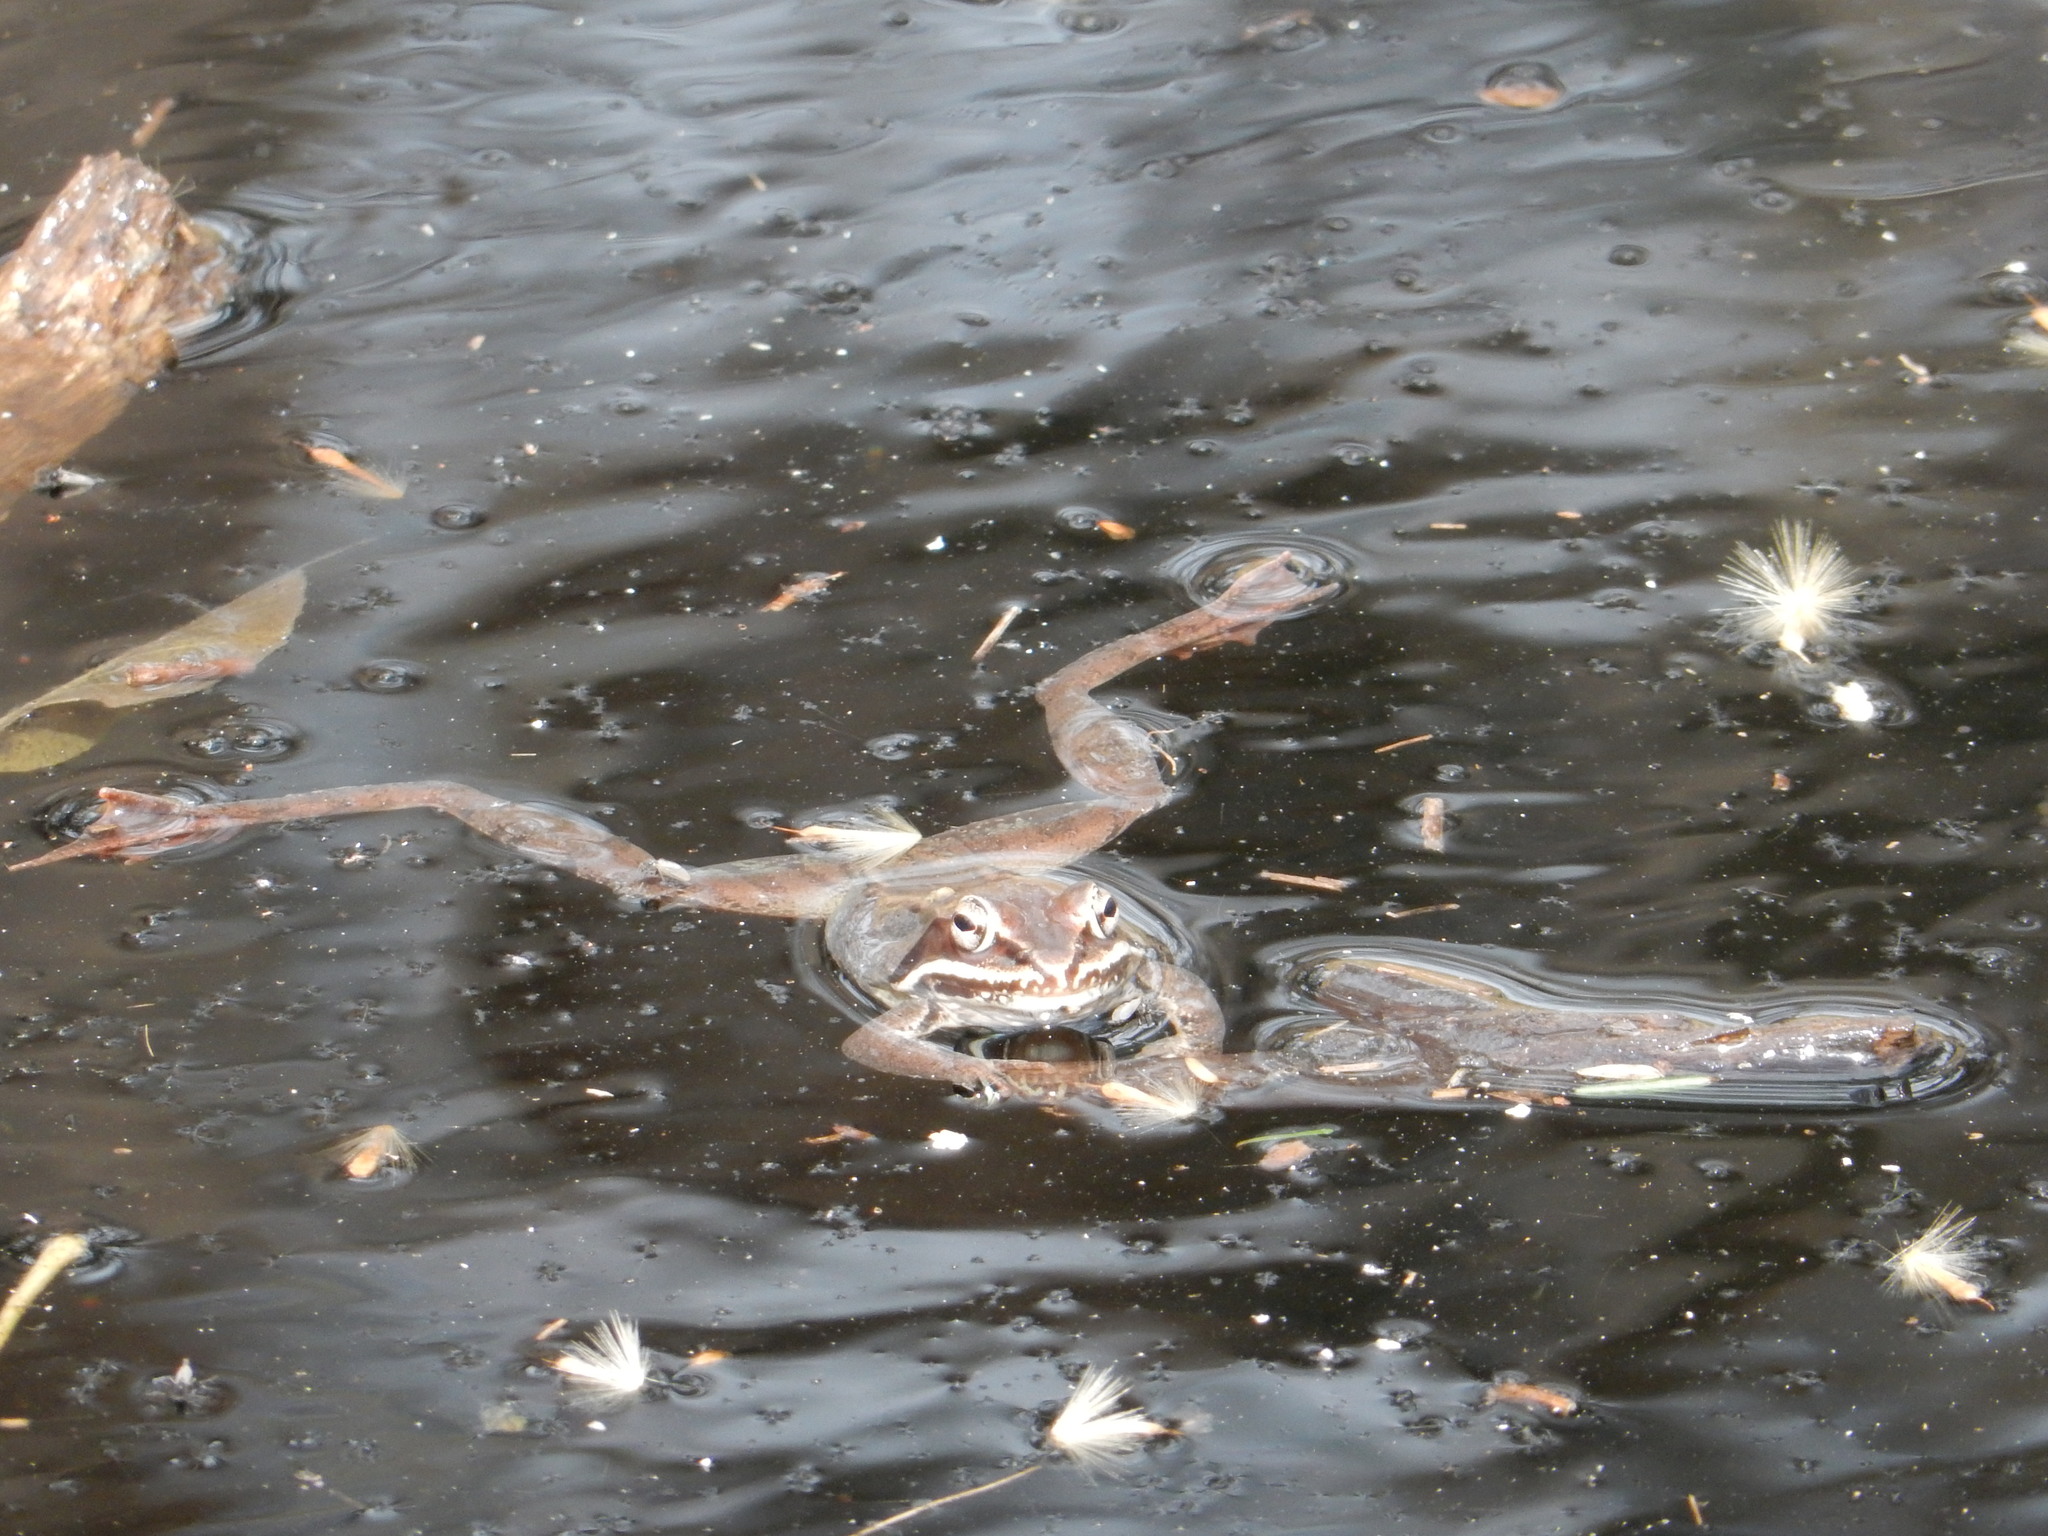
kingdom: Animalia
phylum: Chordata
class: Amphibia
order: Anura
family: Ranidae
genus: Lithobates
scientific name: Lithobates sylvaticus
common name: Wood frog
